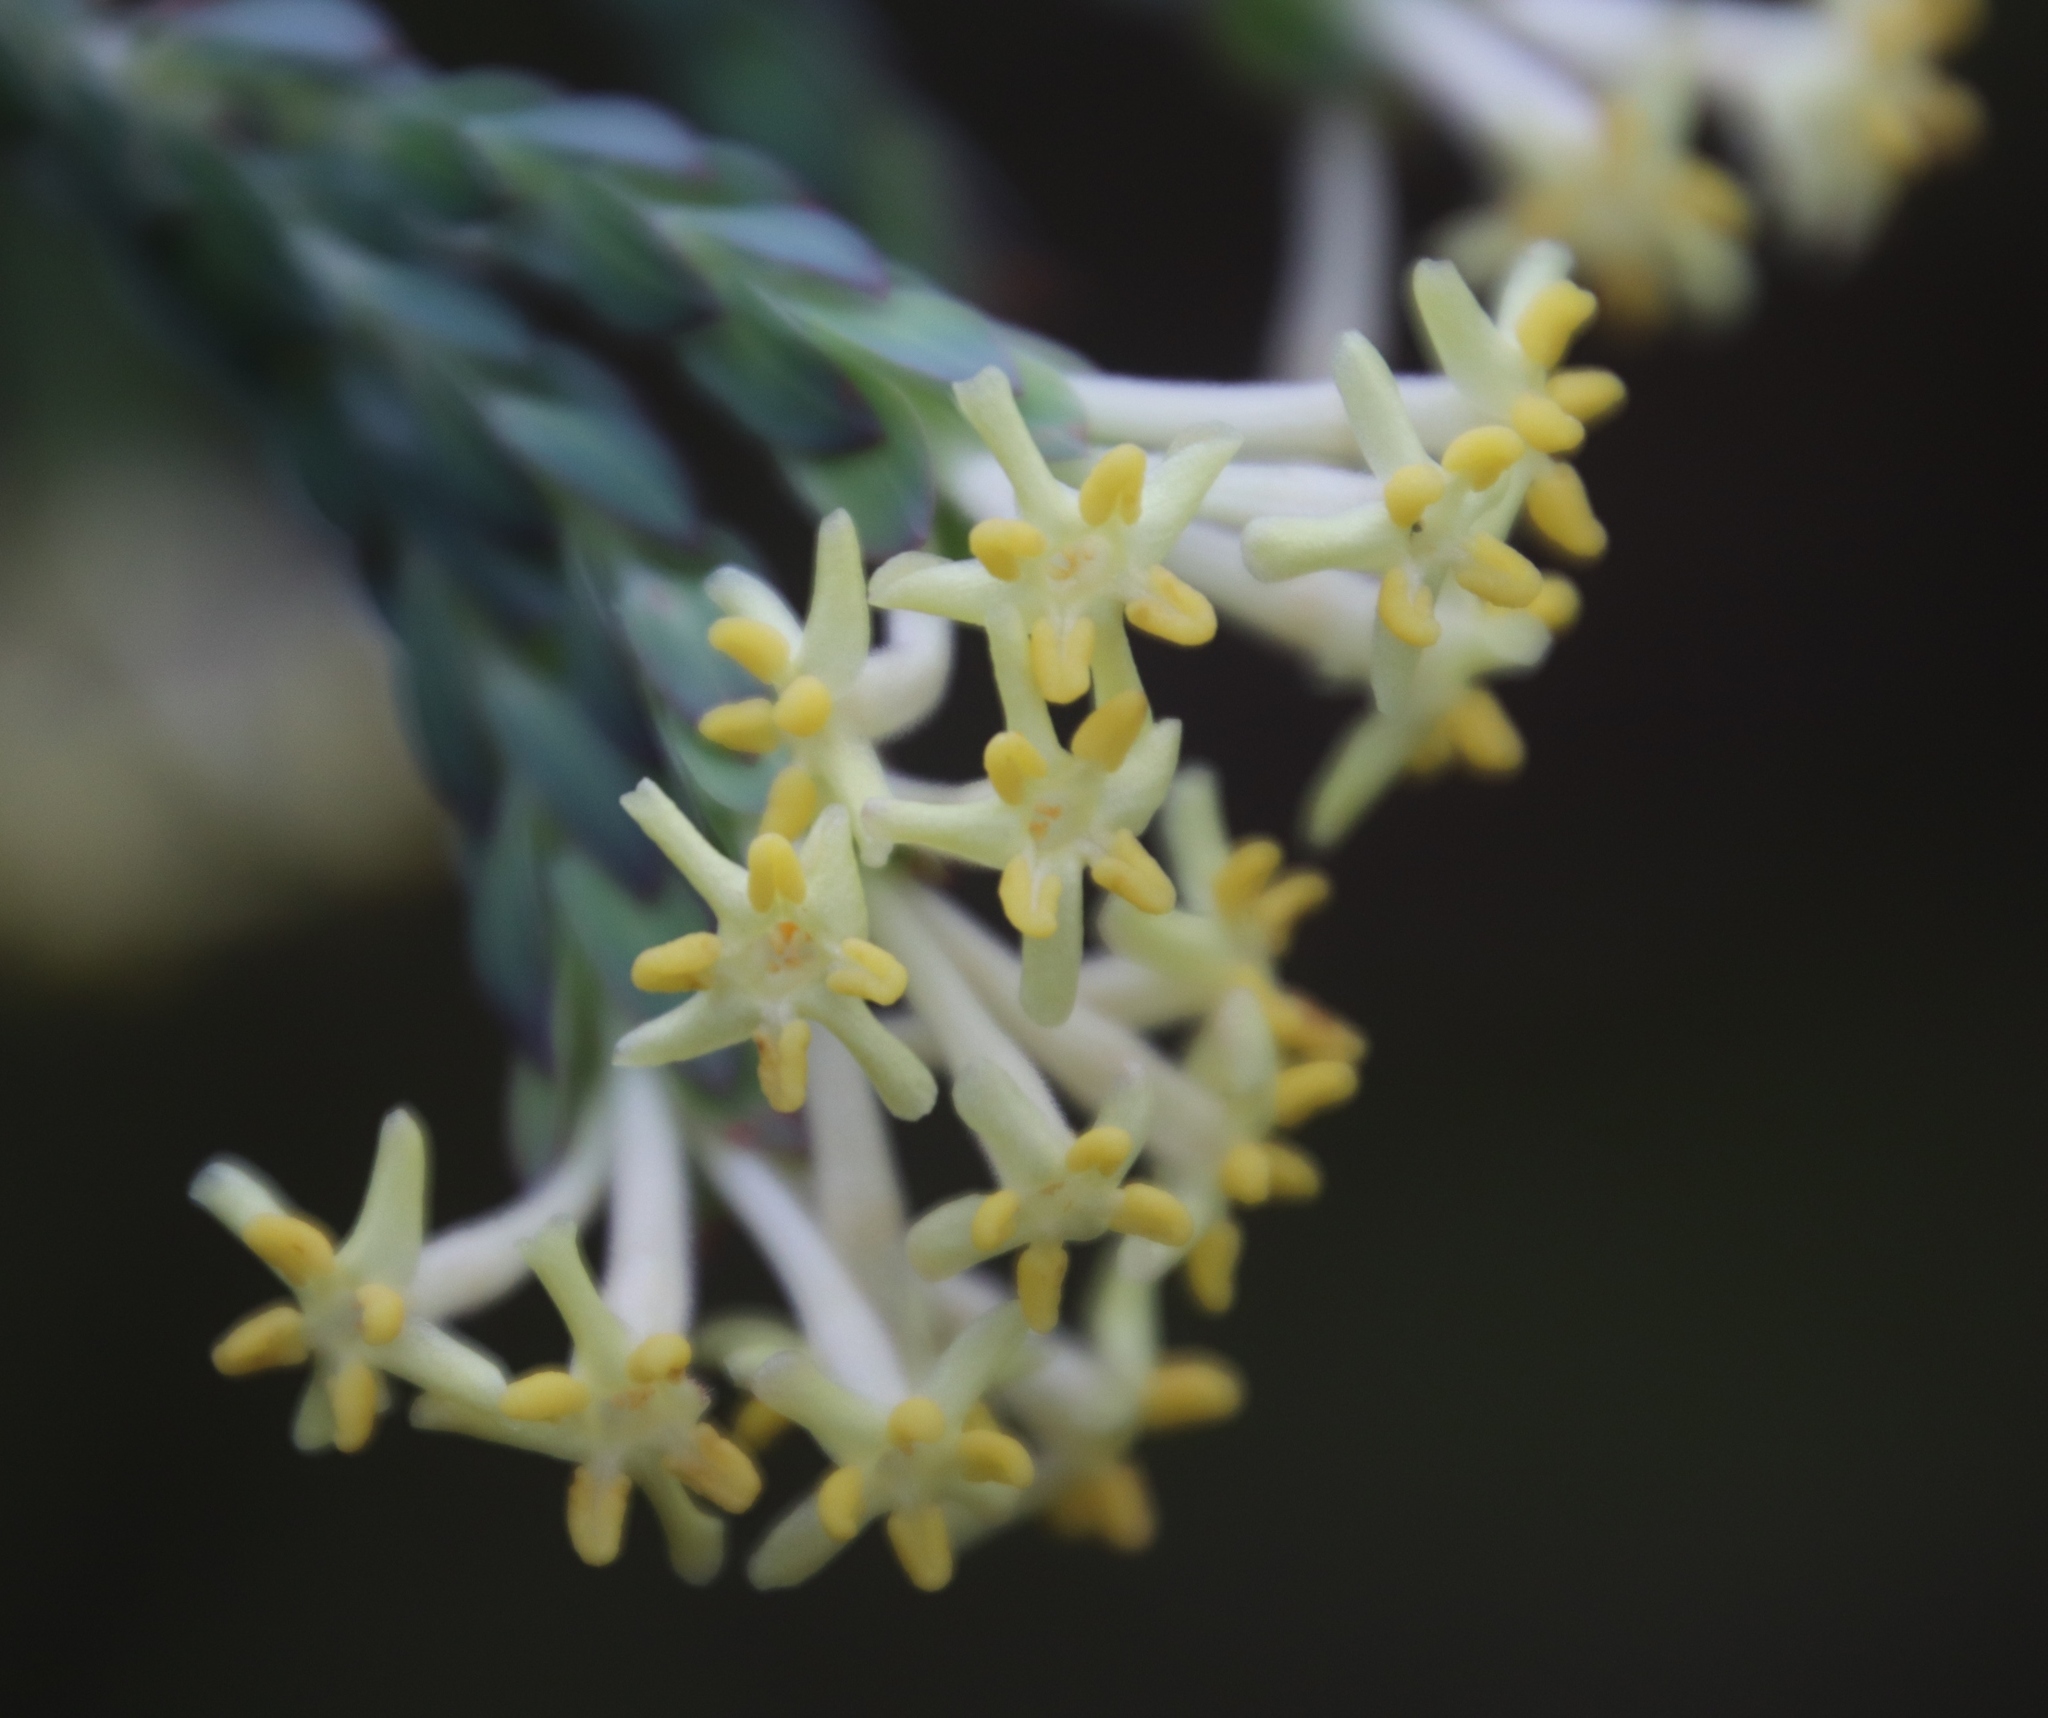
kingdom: Plantae
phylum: Tracheophyta
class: Magnoliopsida
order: Malvales
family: Thymelaeaceae
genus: Gnidia
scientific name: Gnidia oppositifolia
